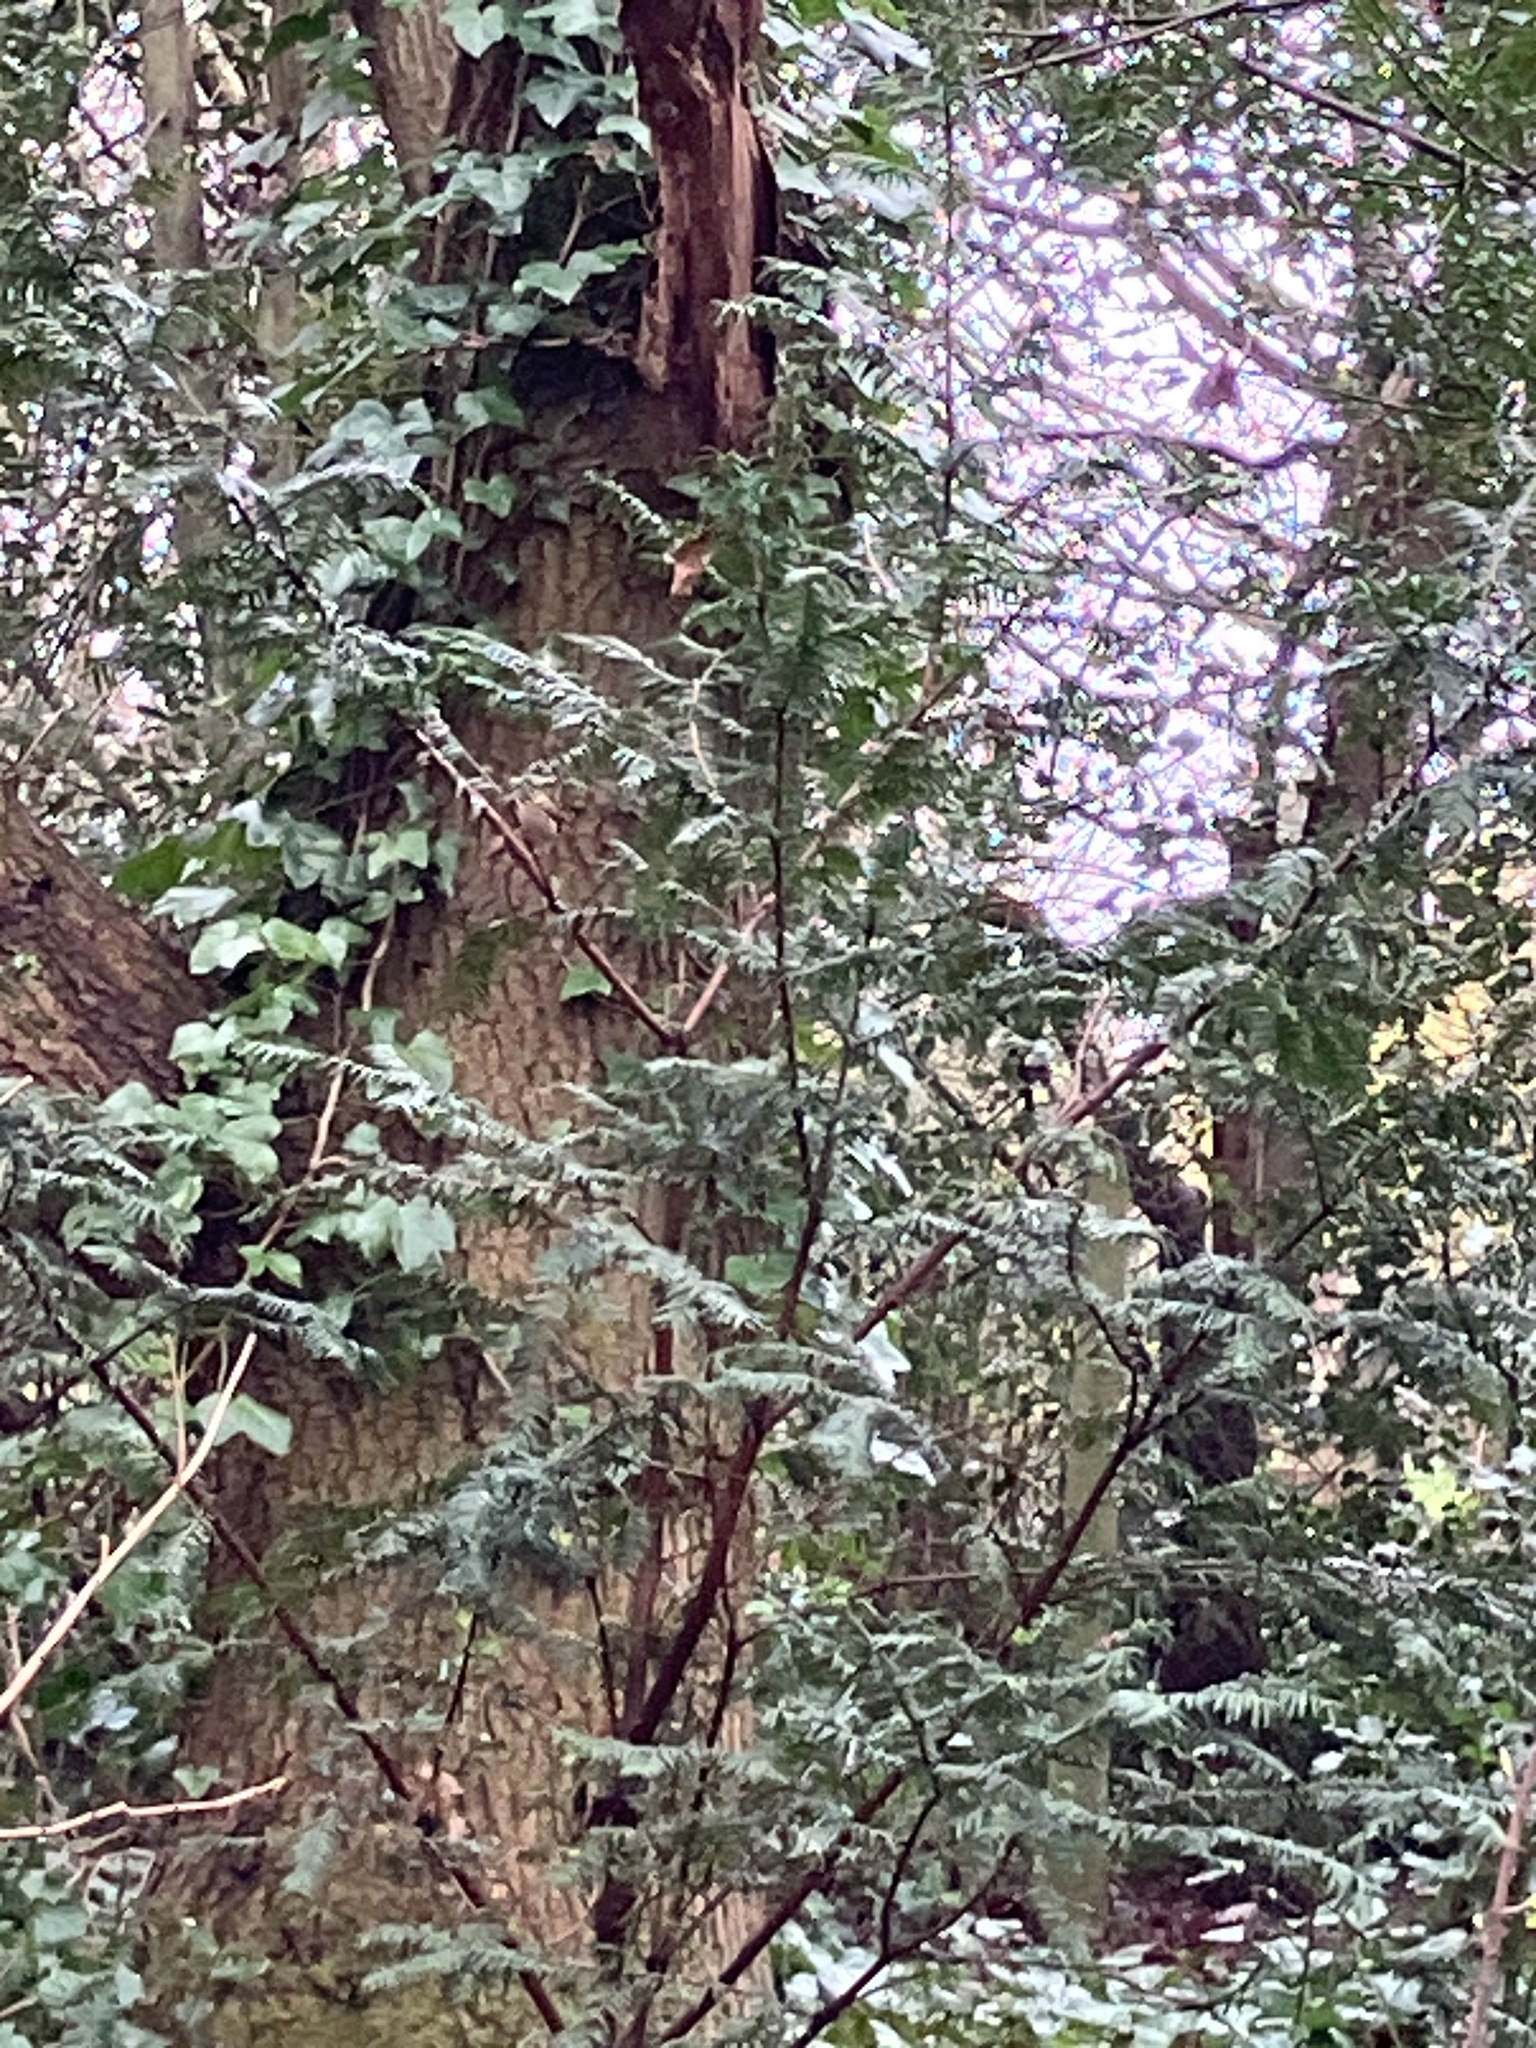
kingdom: Animalia
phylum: Chordata
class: Aves
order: Passeriformes
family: Regulidae
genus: Regulus
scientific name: Regulus regulus
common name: Goldcrest
